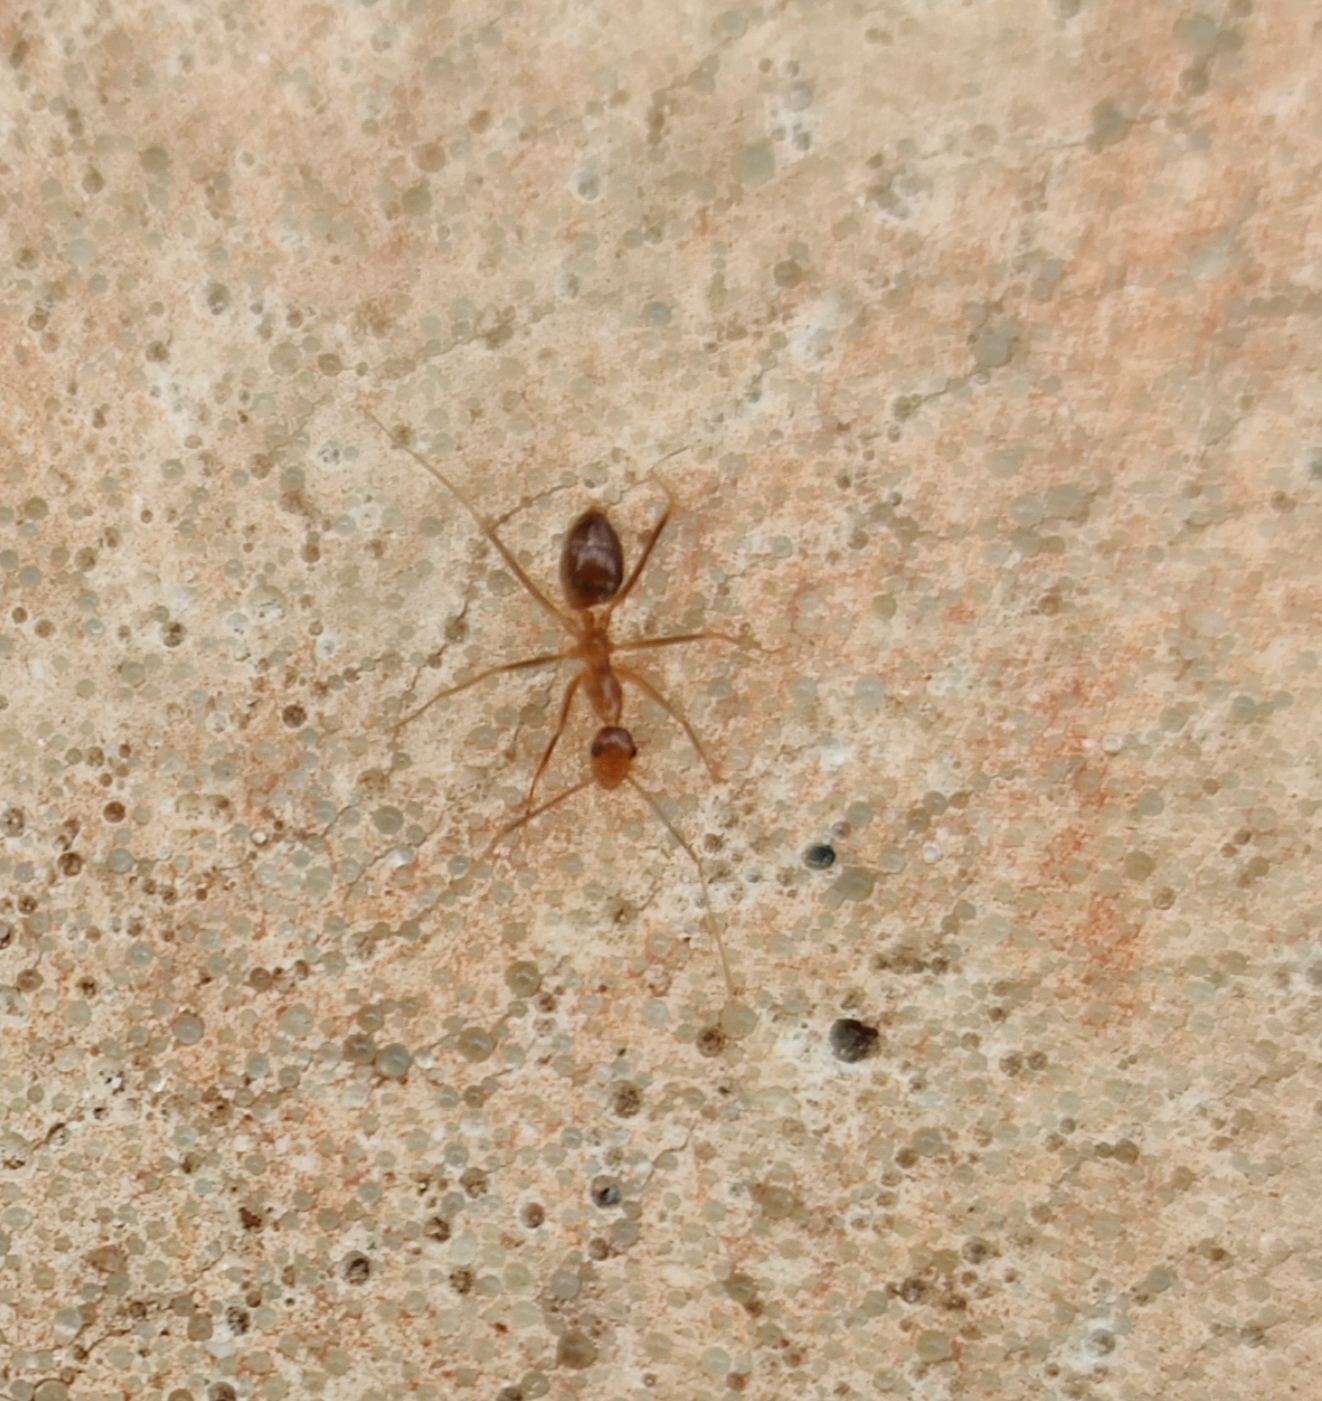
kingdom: Animalia
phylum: Arthropoda
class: Insecta
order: Hymenoptera
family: Formicidae
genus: Anoplolepis
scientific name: Anoplolepis gracilipes
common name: Ant
